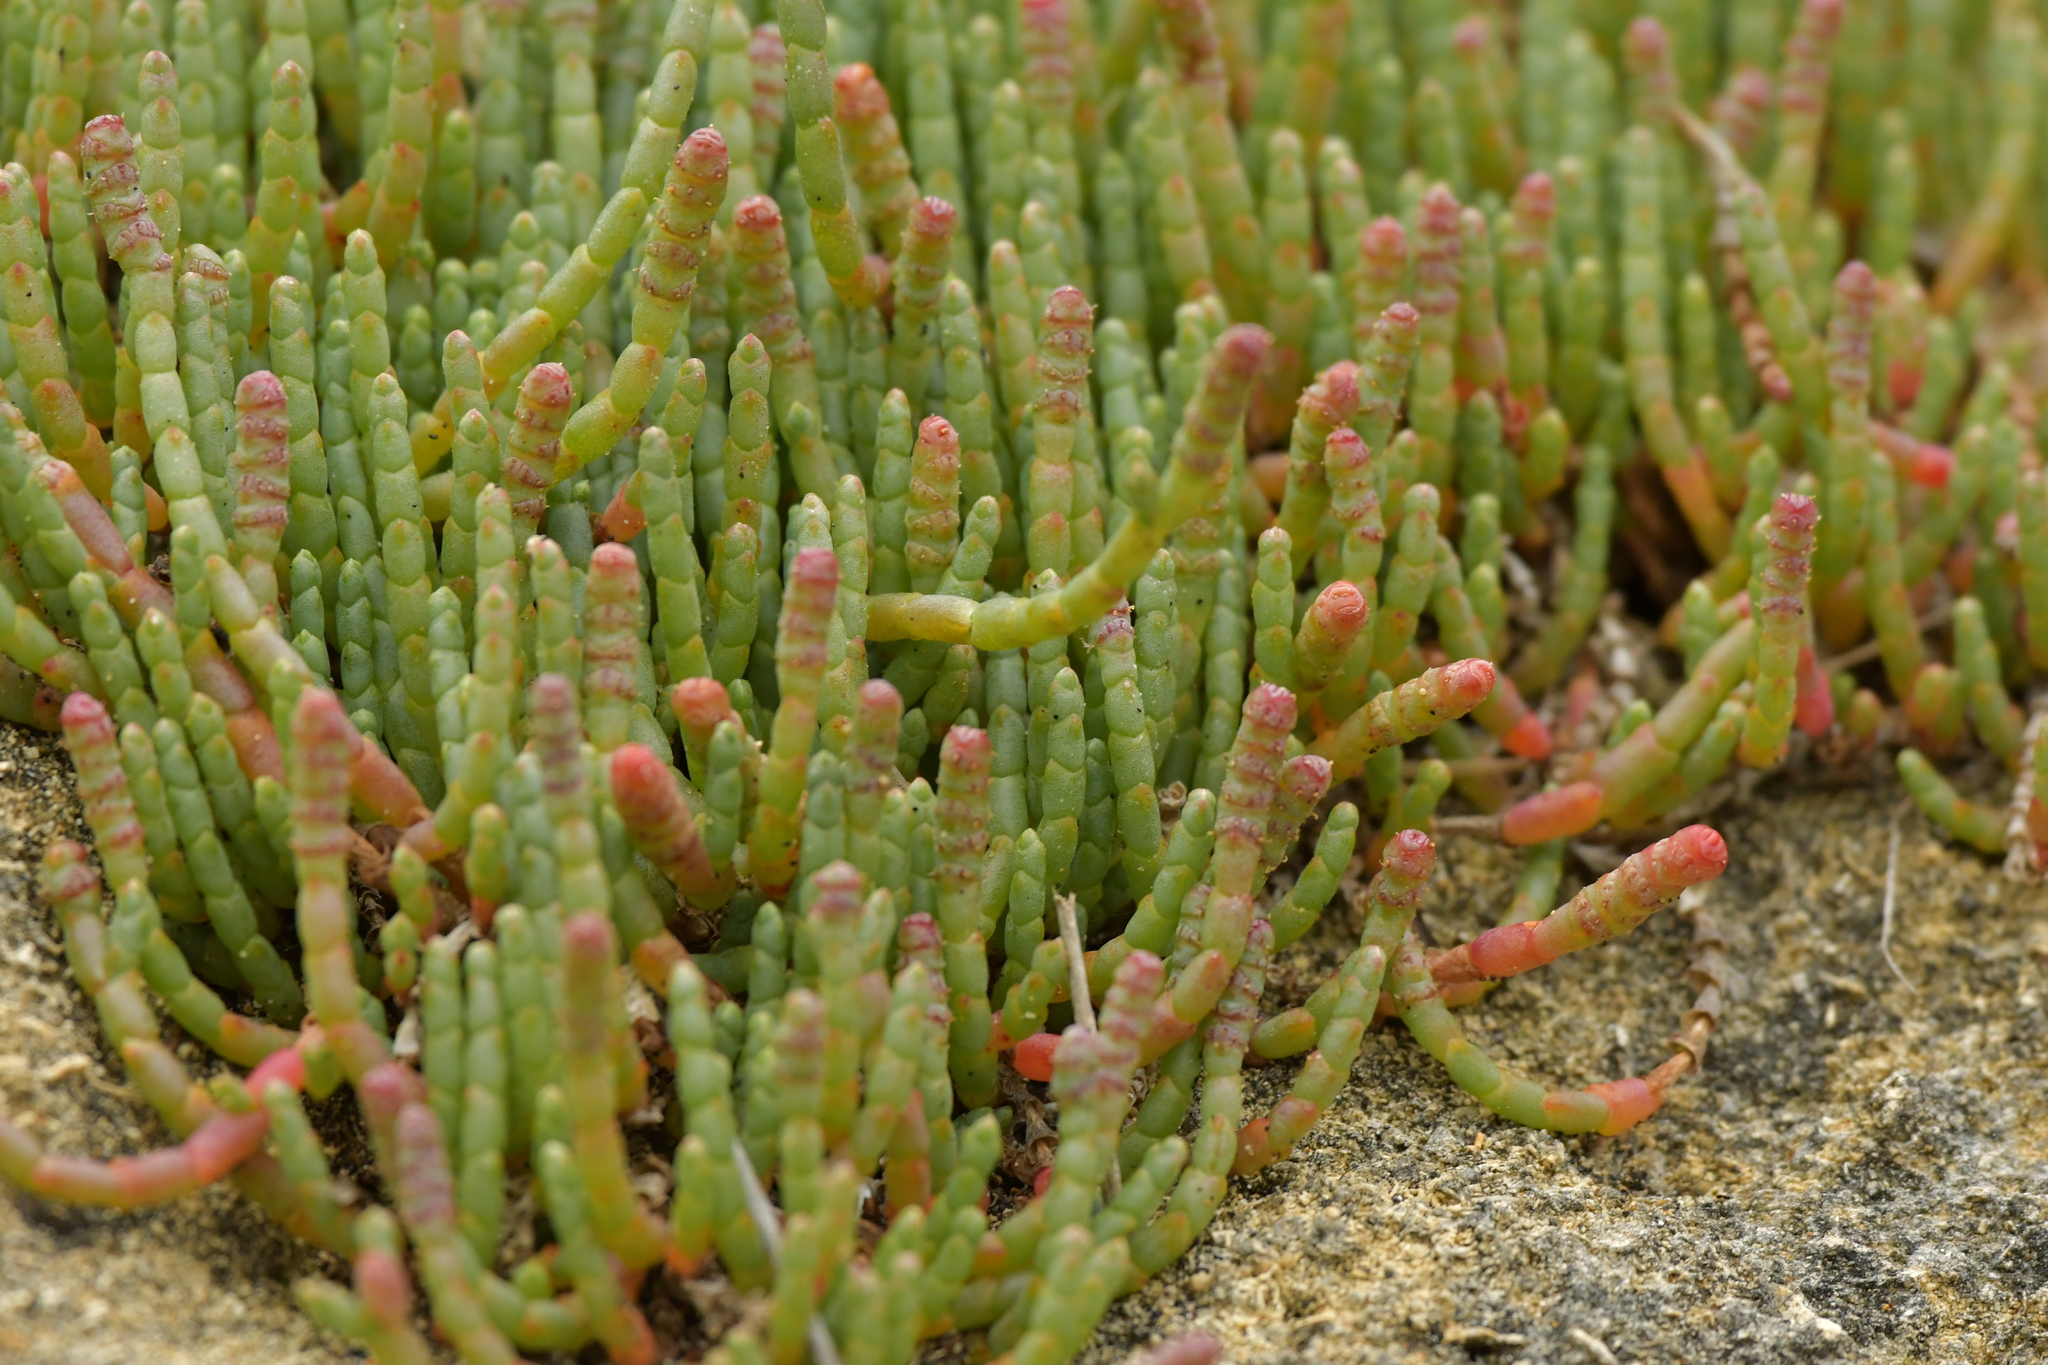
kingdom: Plantae
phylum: Tracheophyta
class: Magnoliopsida
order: Caryophyllales
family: Amaranthaceae
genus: Salicornia
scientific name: Salicornia quinqueflora
